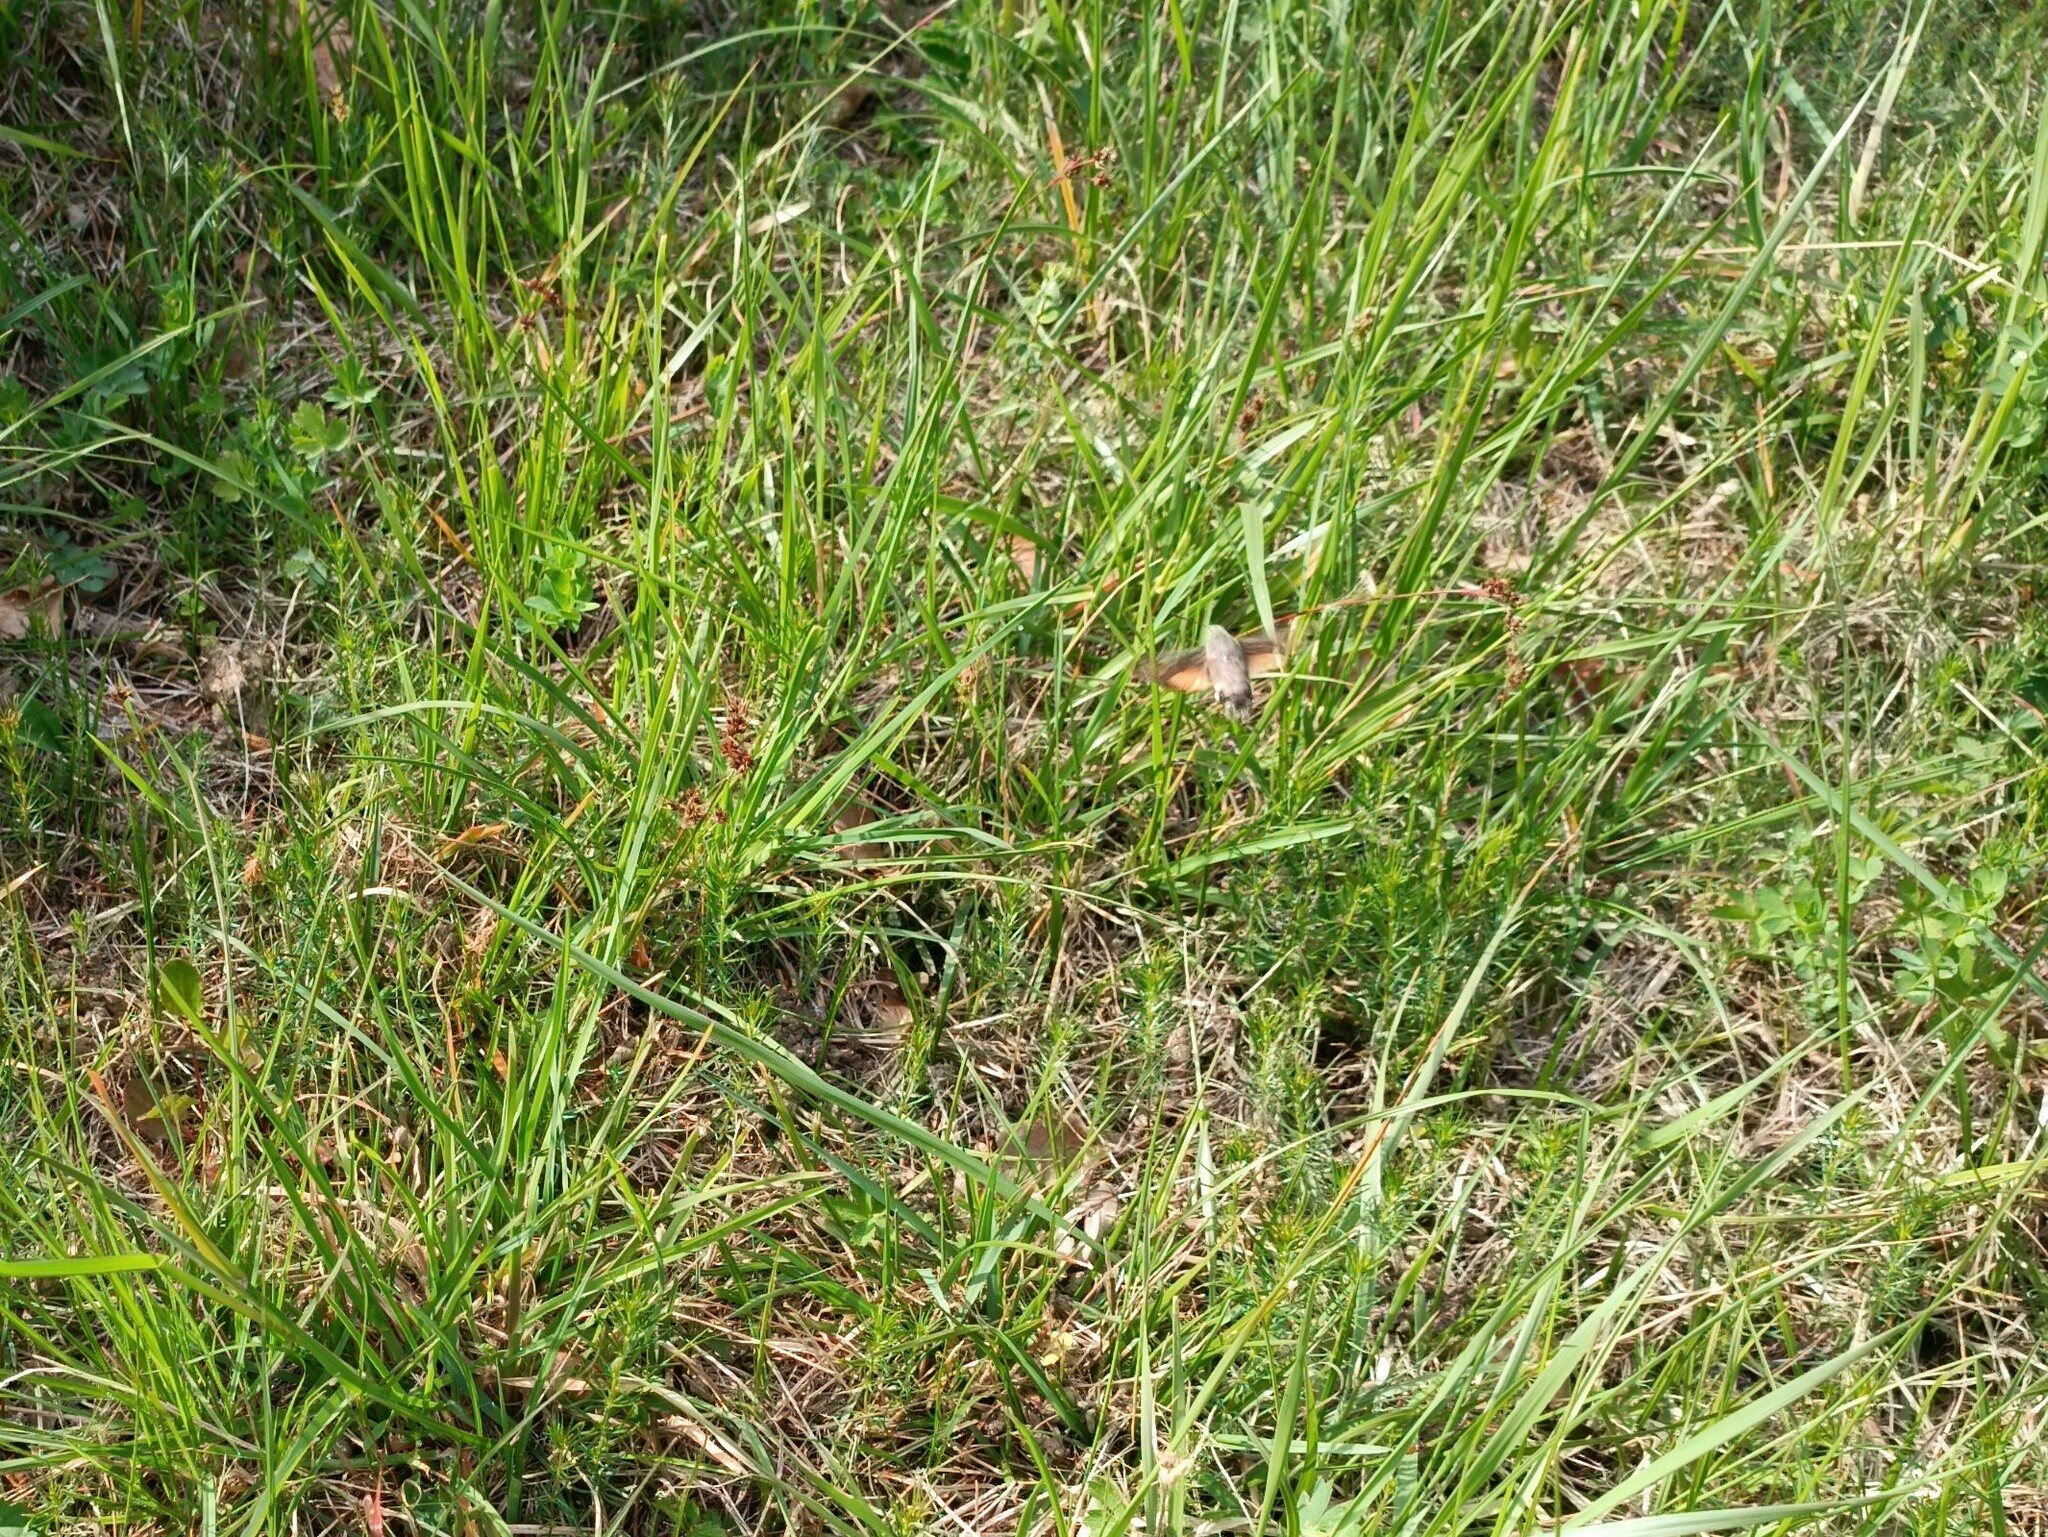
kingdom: Animalia
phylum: Arthropoda
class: Insecta
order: Lepidoptera
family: Sphingidae
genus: Macroglossum
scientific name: Macroglossum stellatarum
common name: Humming-bird hawk-moth
